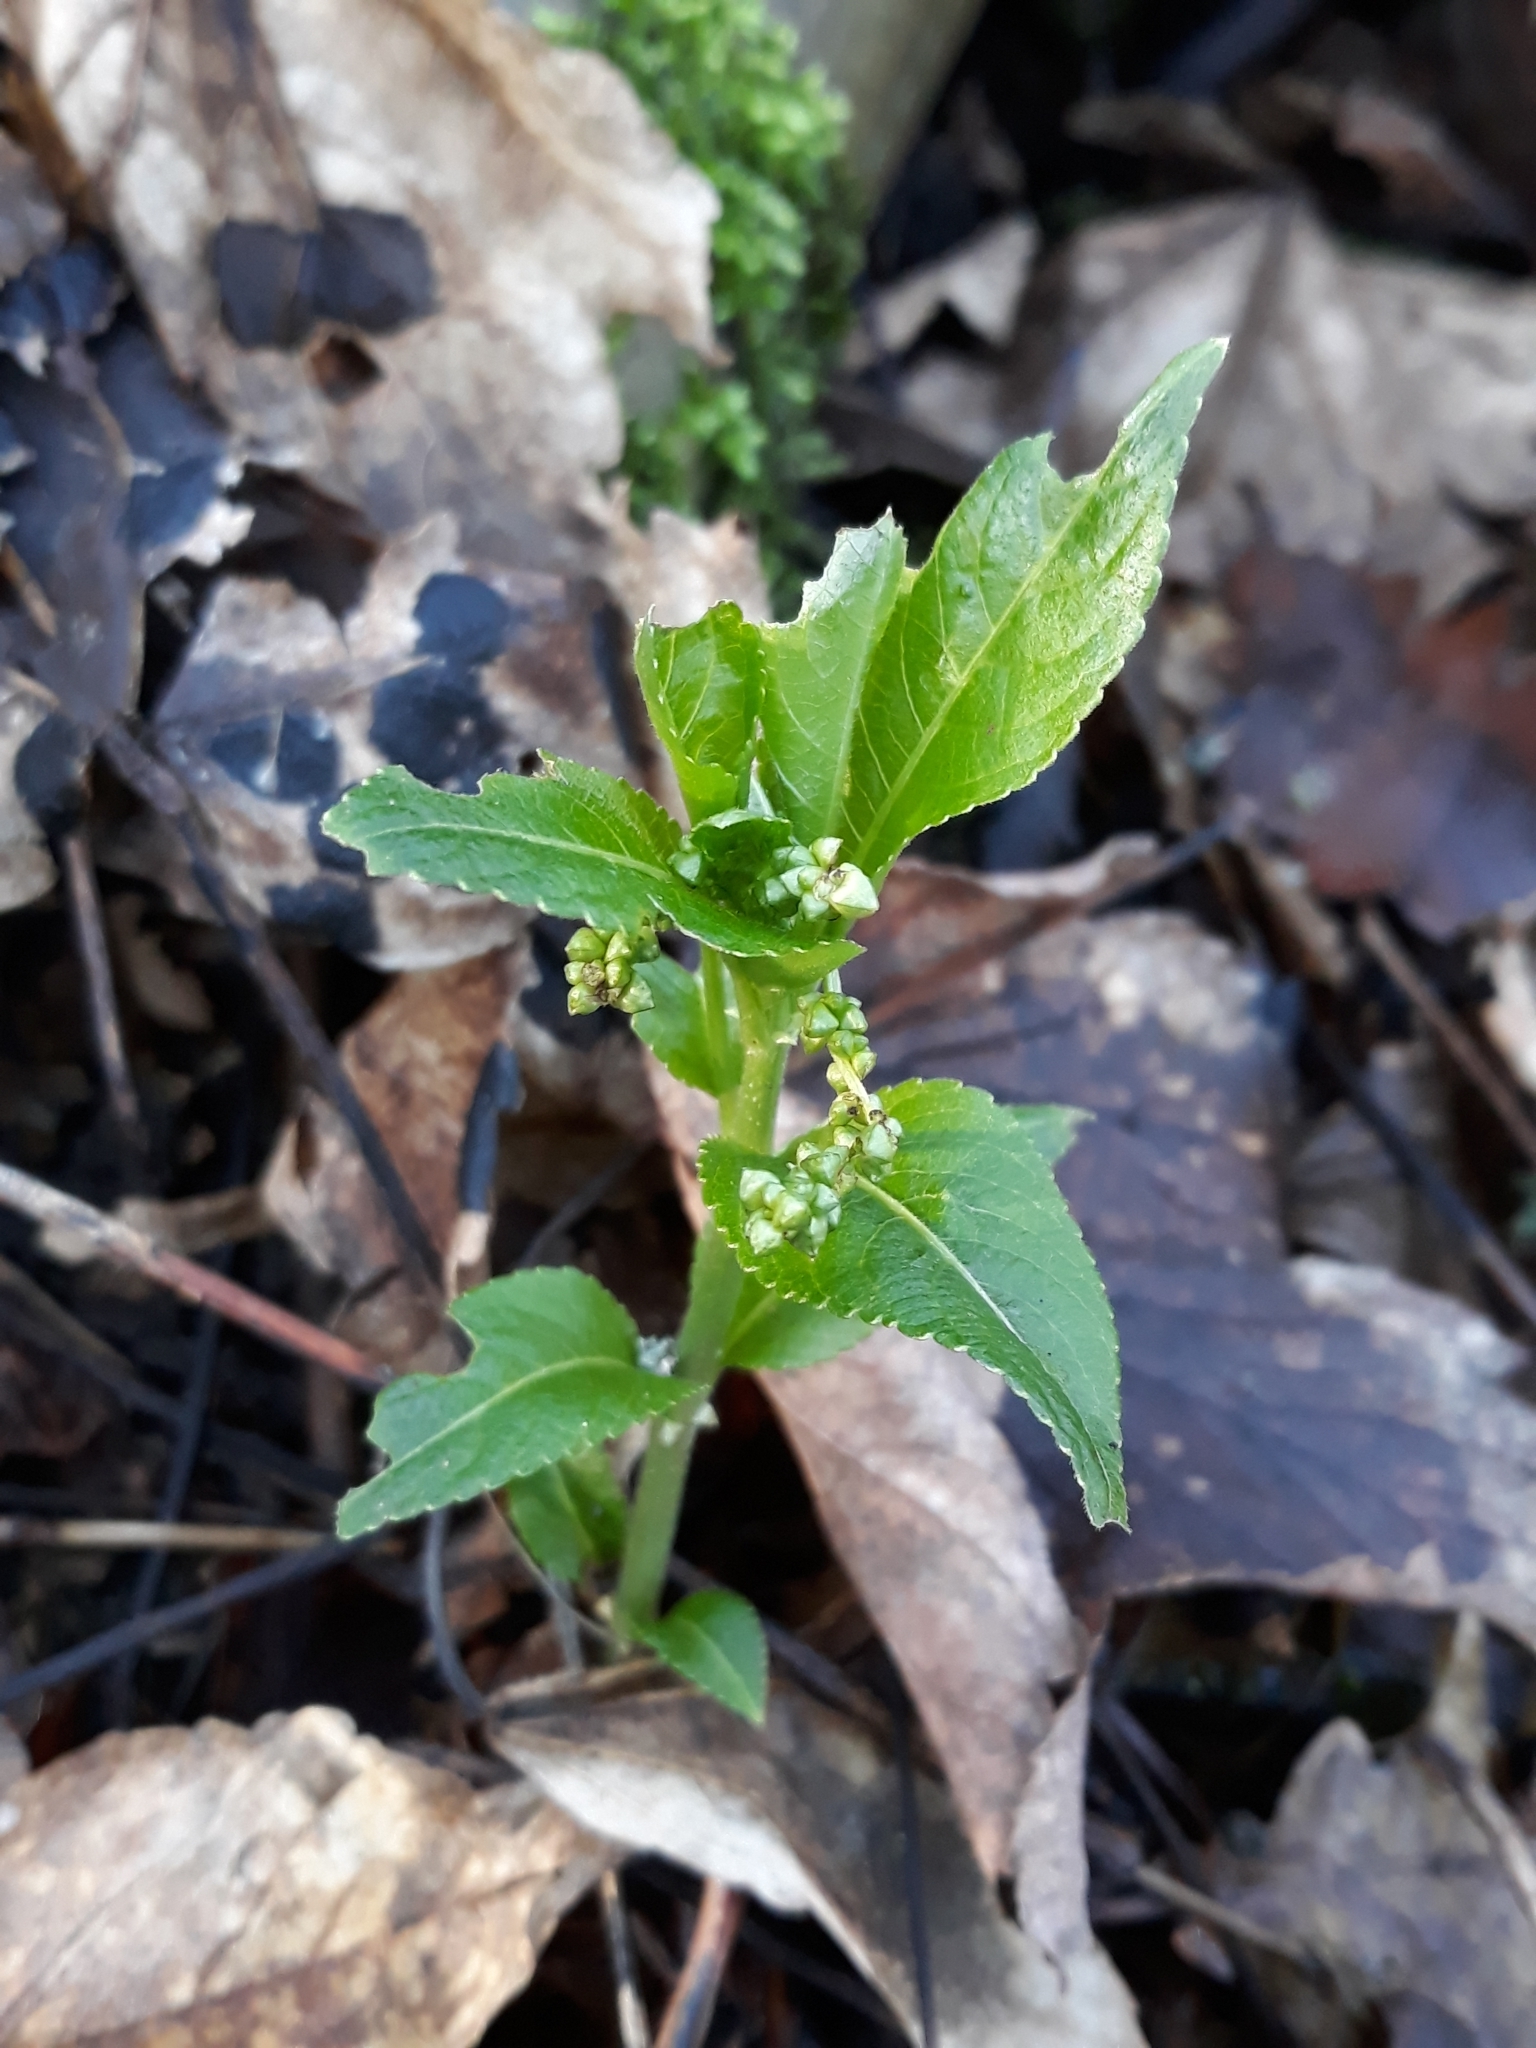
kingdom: Plantae
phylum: Tracheophyta
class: Magnoliopsida
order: Malpighiales
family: Euphorbiaceae
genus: Mercurialis
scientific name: Mercurialis perennis
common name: Dog mercury
